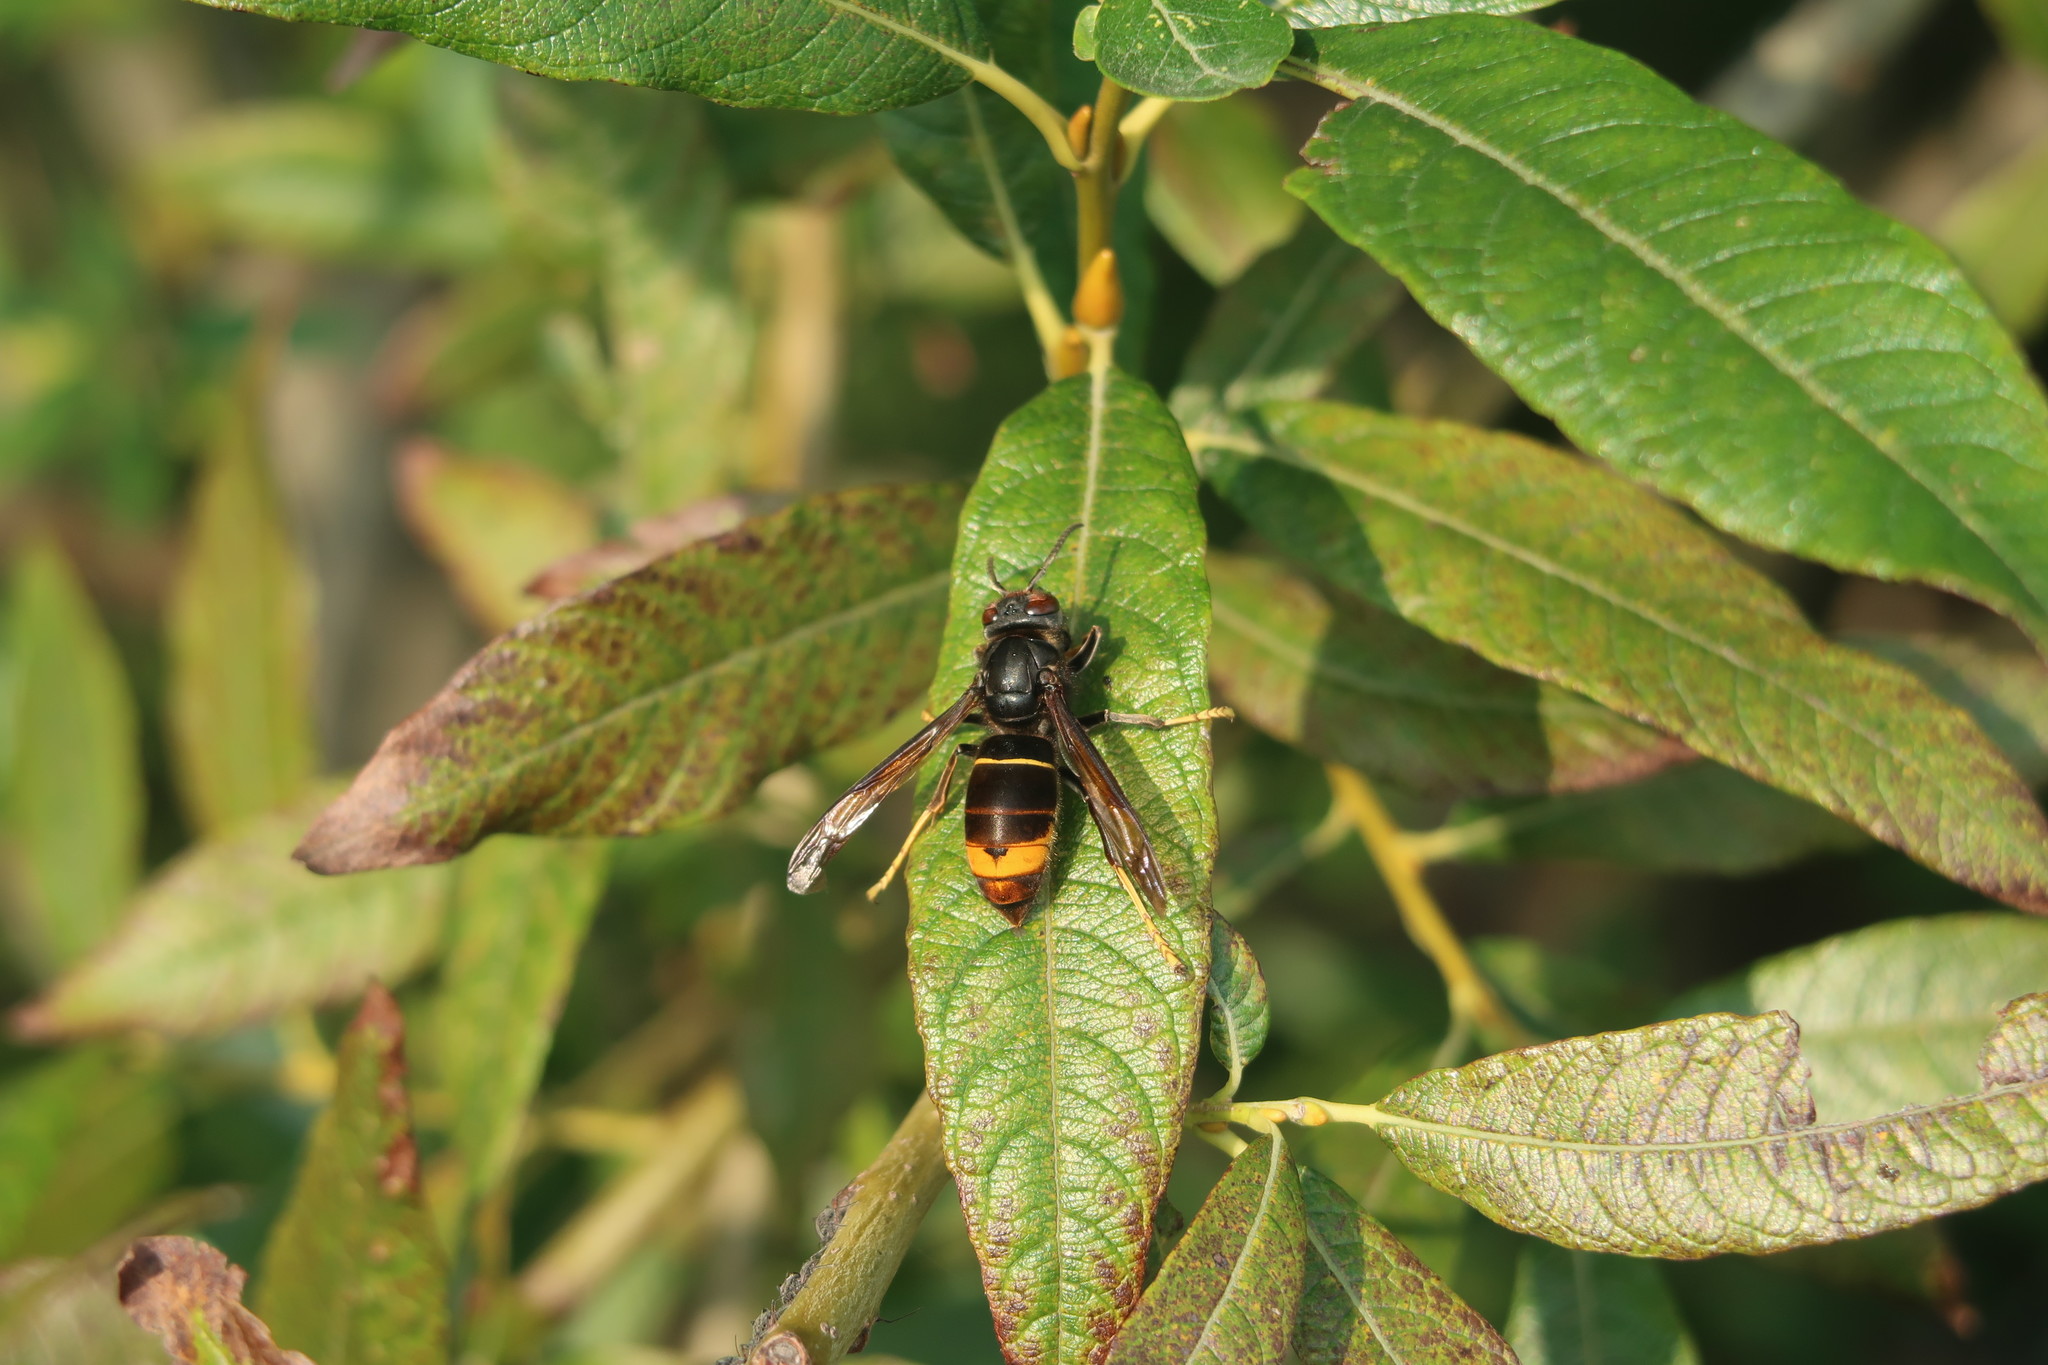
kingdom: Animalia
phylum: Arthropoda
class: Insecta
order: Hymenoptera
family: Vespidae
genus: Vespa
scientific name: Vespa velutina
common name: Asian hornet
